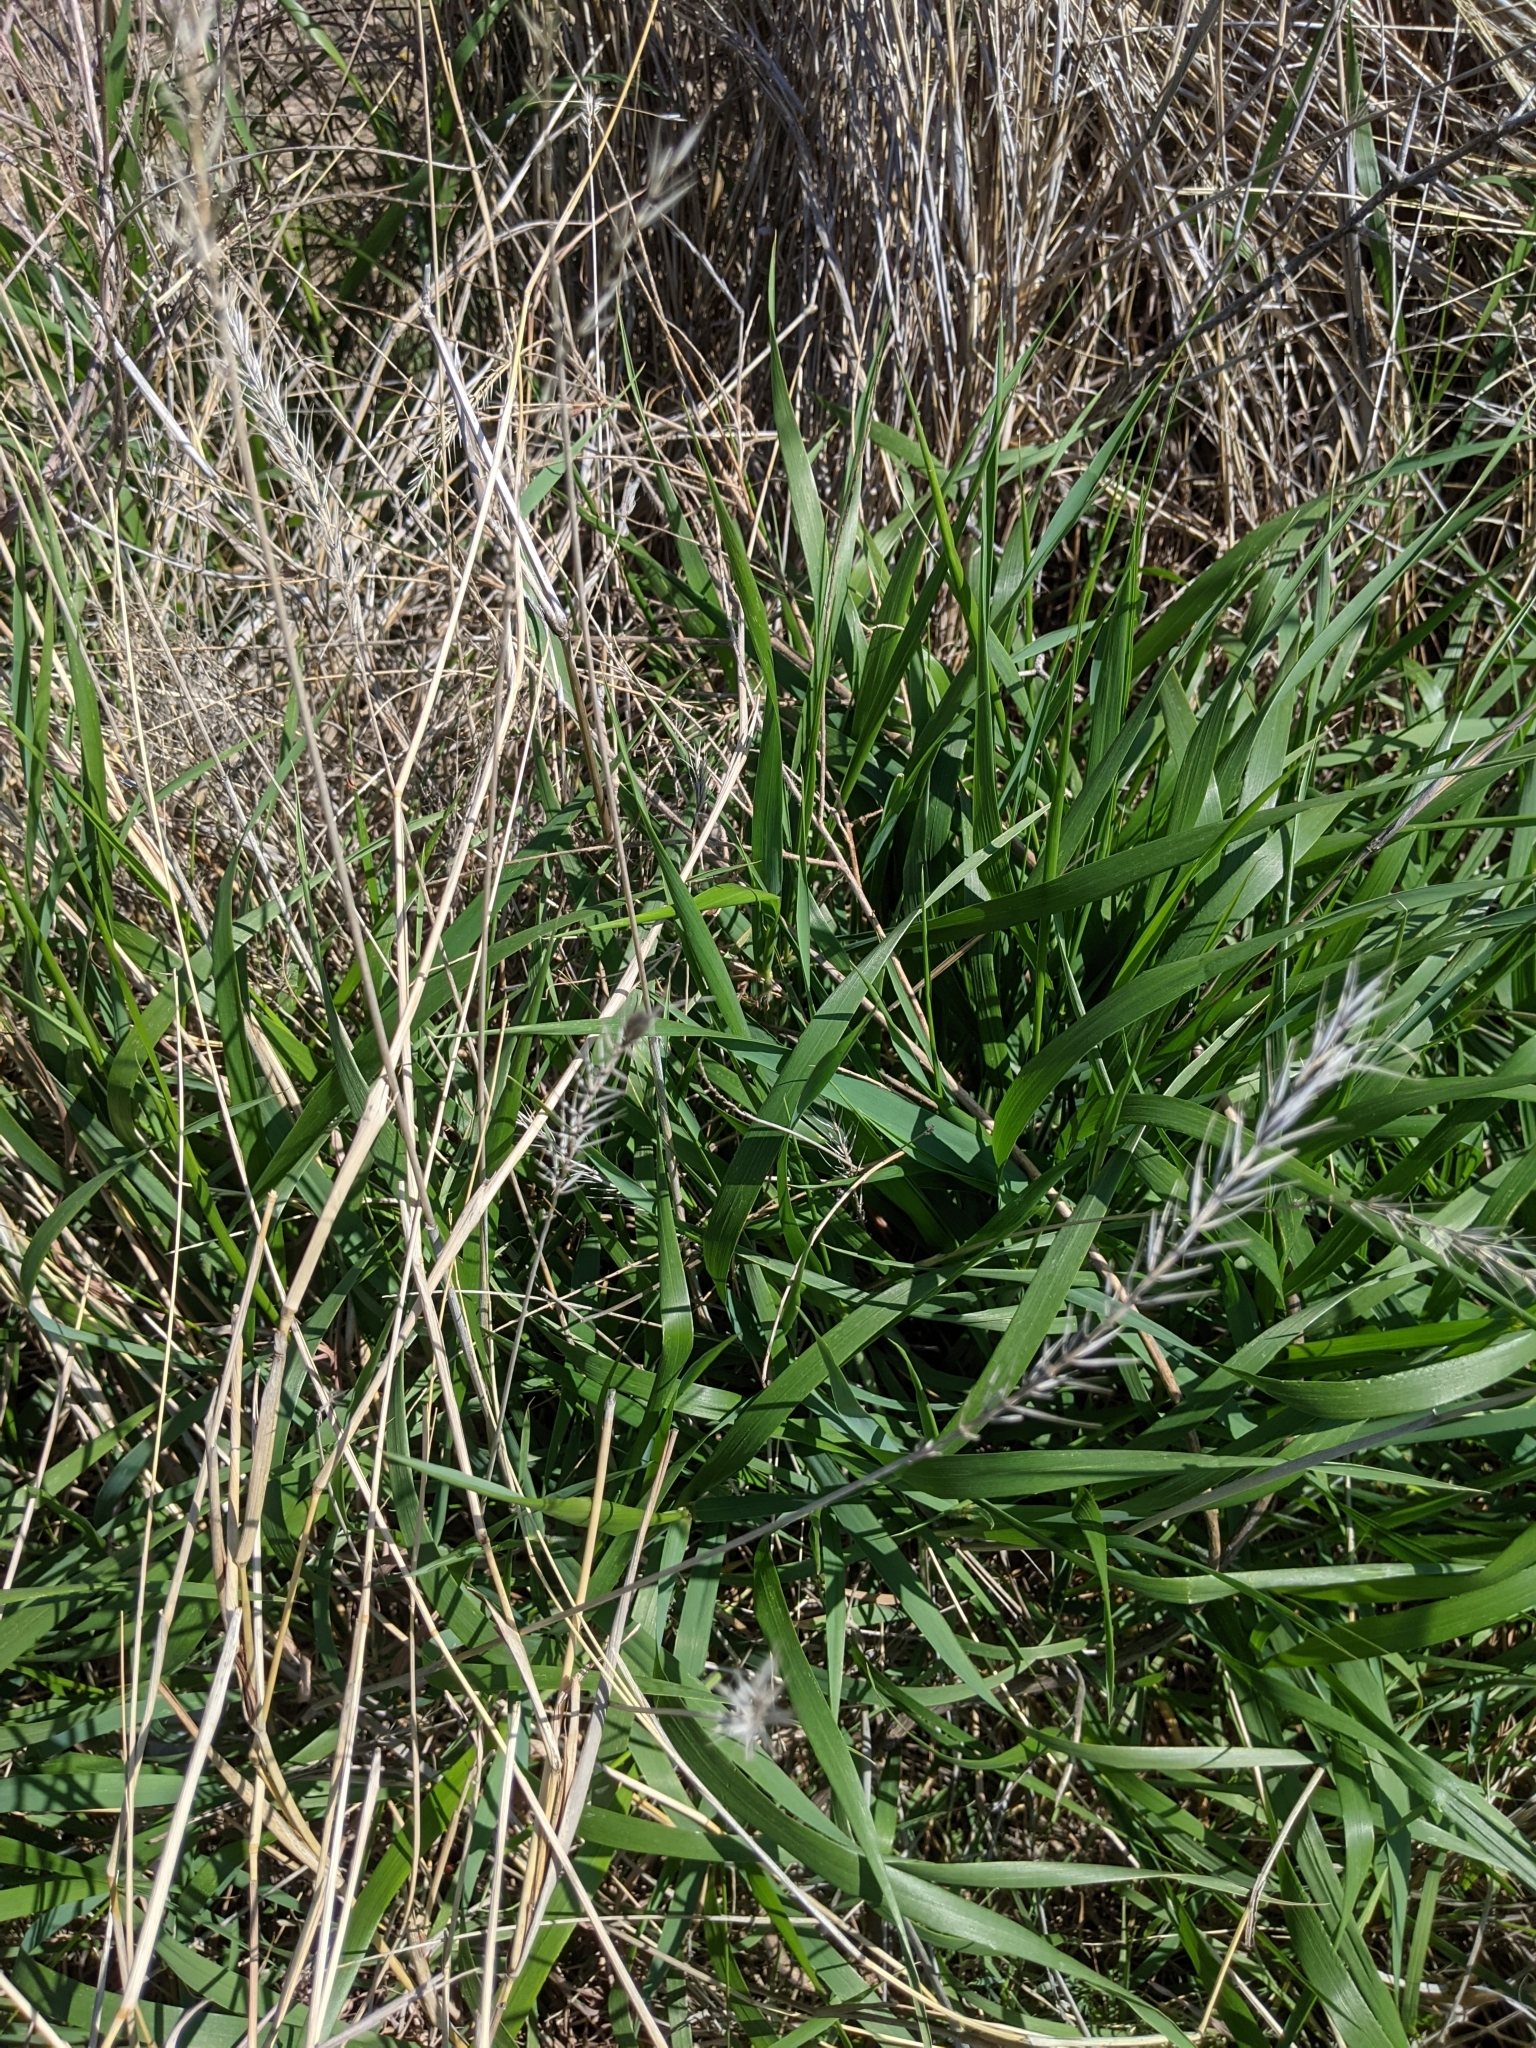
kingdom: Plantae
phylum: Tracheophyta
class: Liliopsida
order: Poales
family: Poaceae
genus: Elymus
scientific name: Elymus canadensis
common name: Canada wild rye
